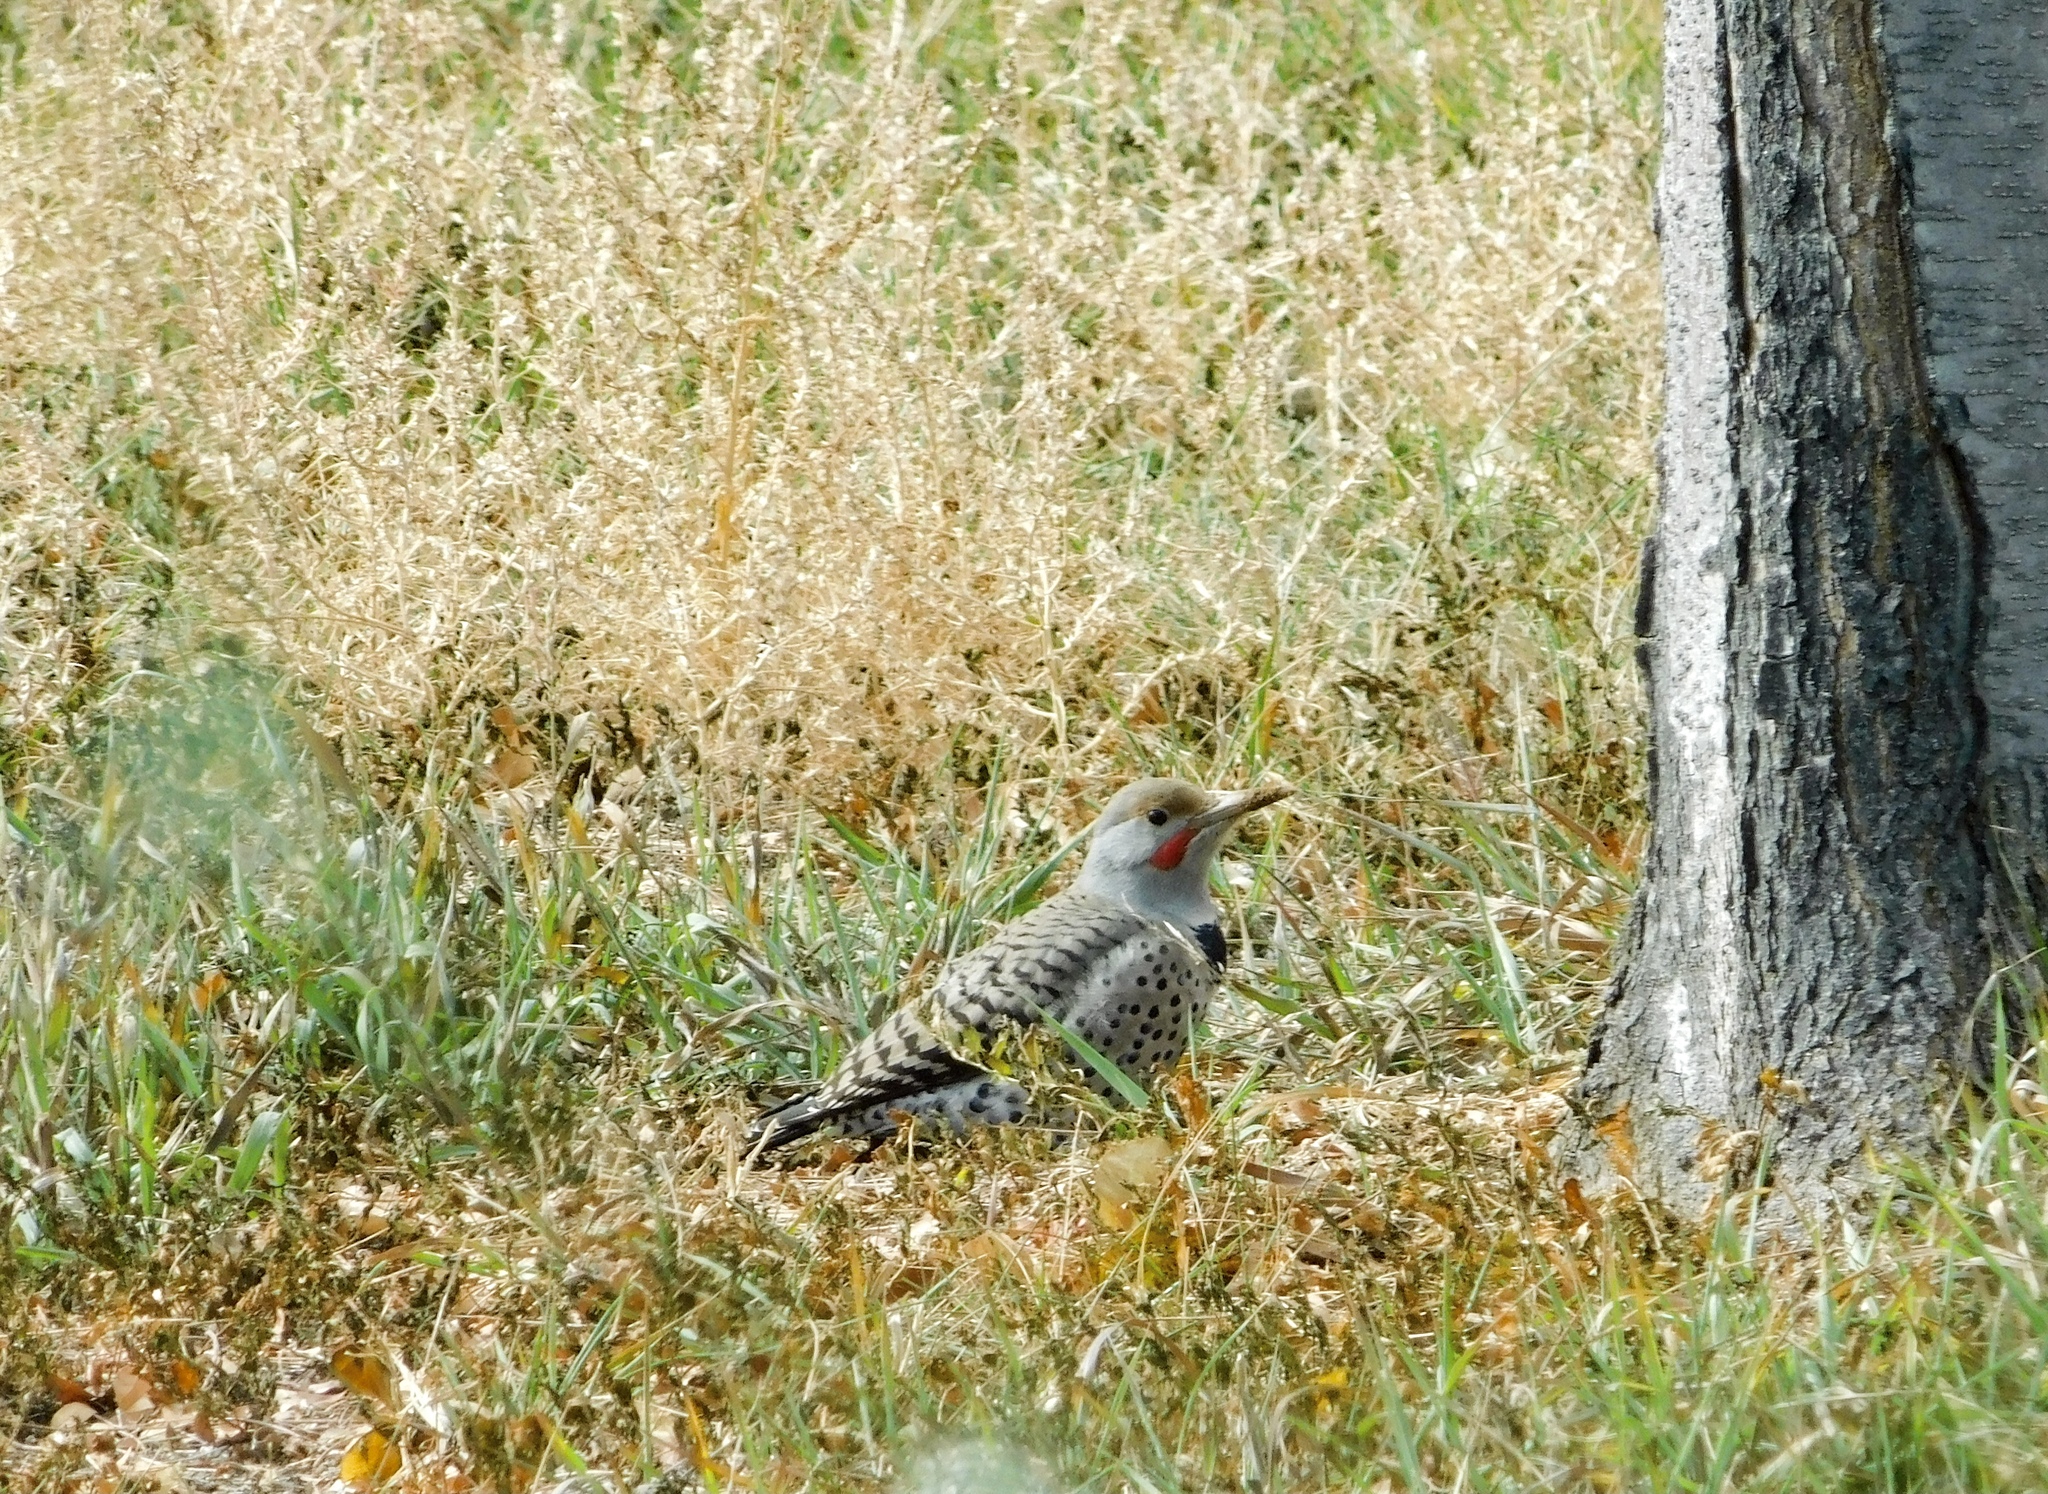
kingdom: Animalia
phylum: Chordata
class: Aves
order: Piciformes
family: Picidae
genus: Colaptes
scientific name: Colaptes auratus
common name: Northern flicker
